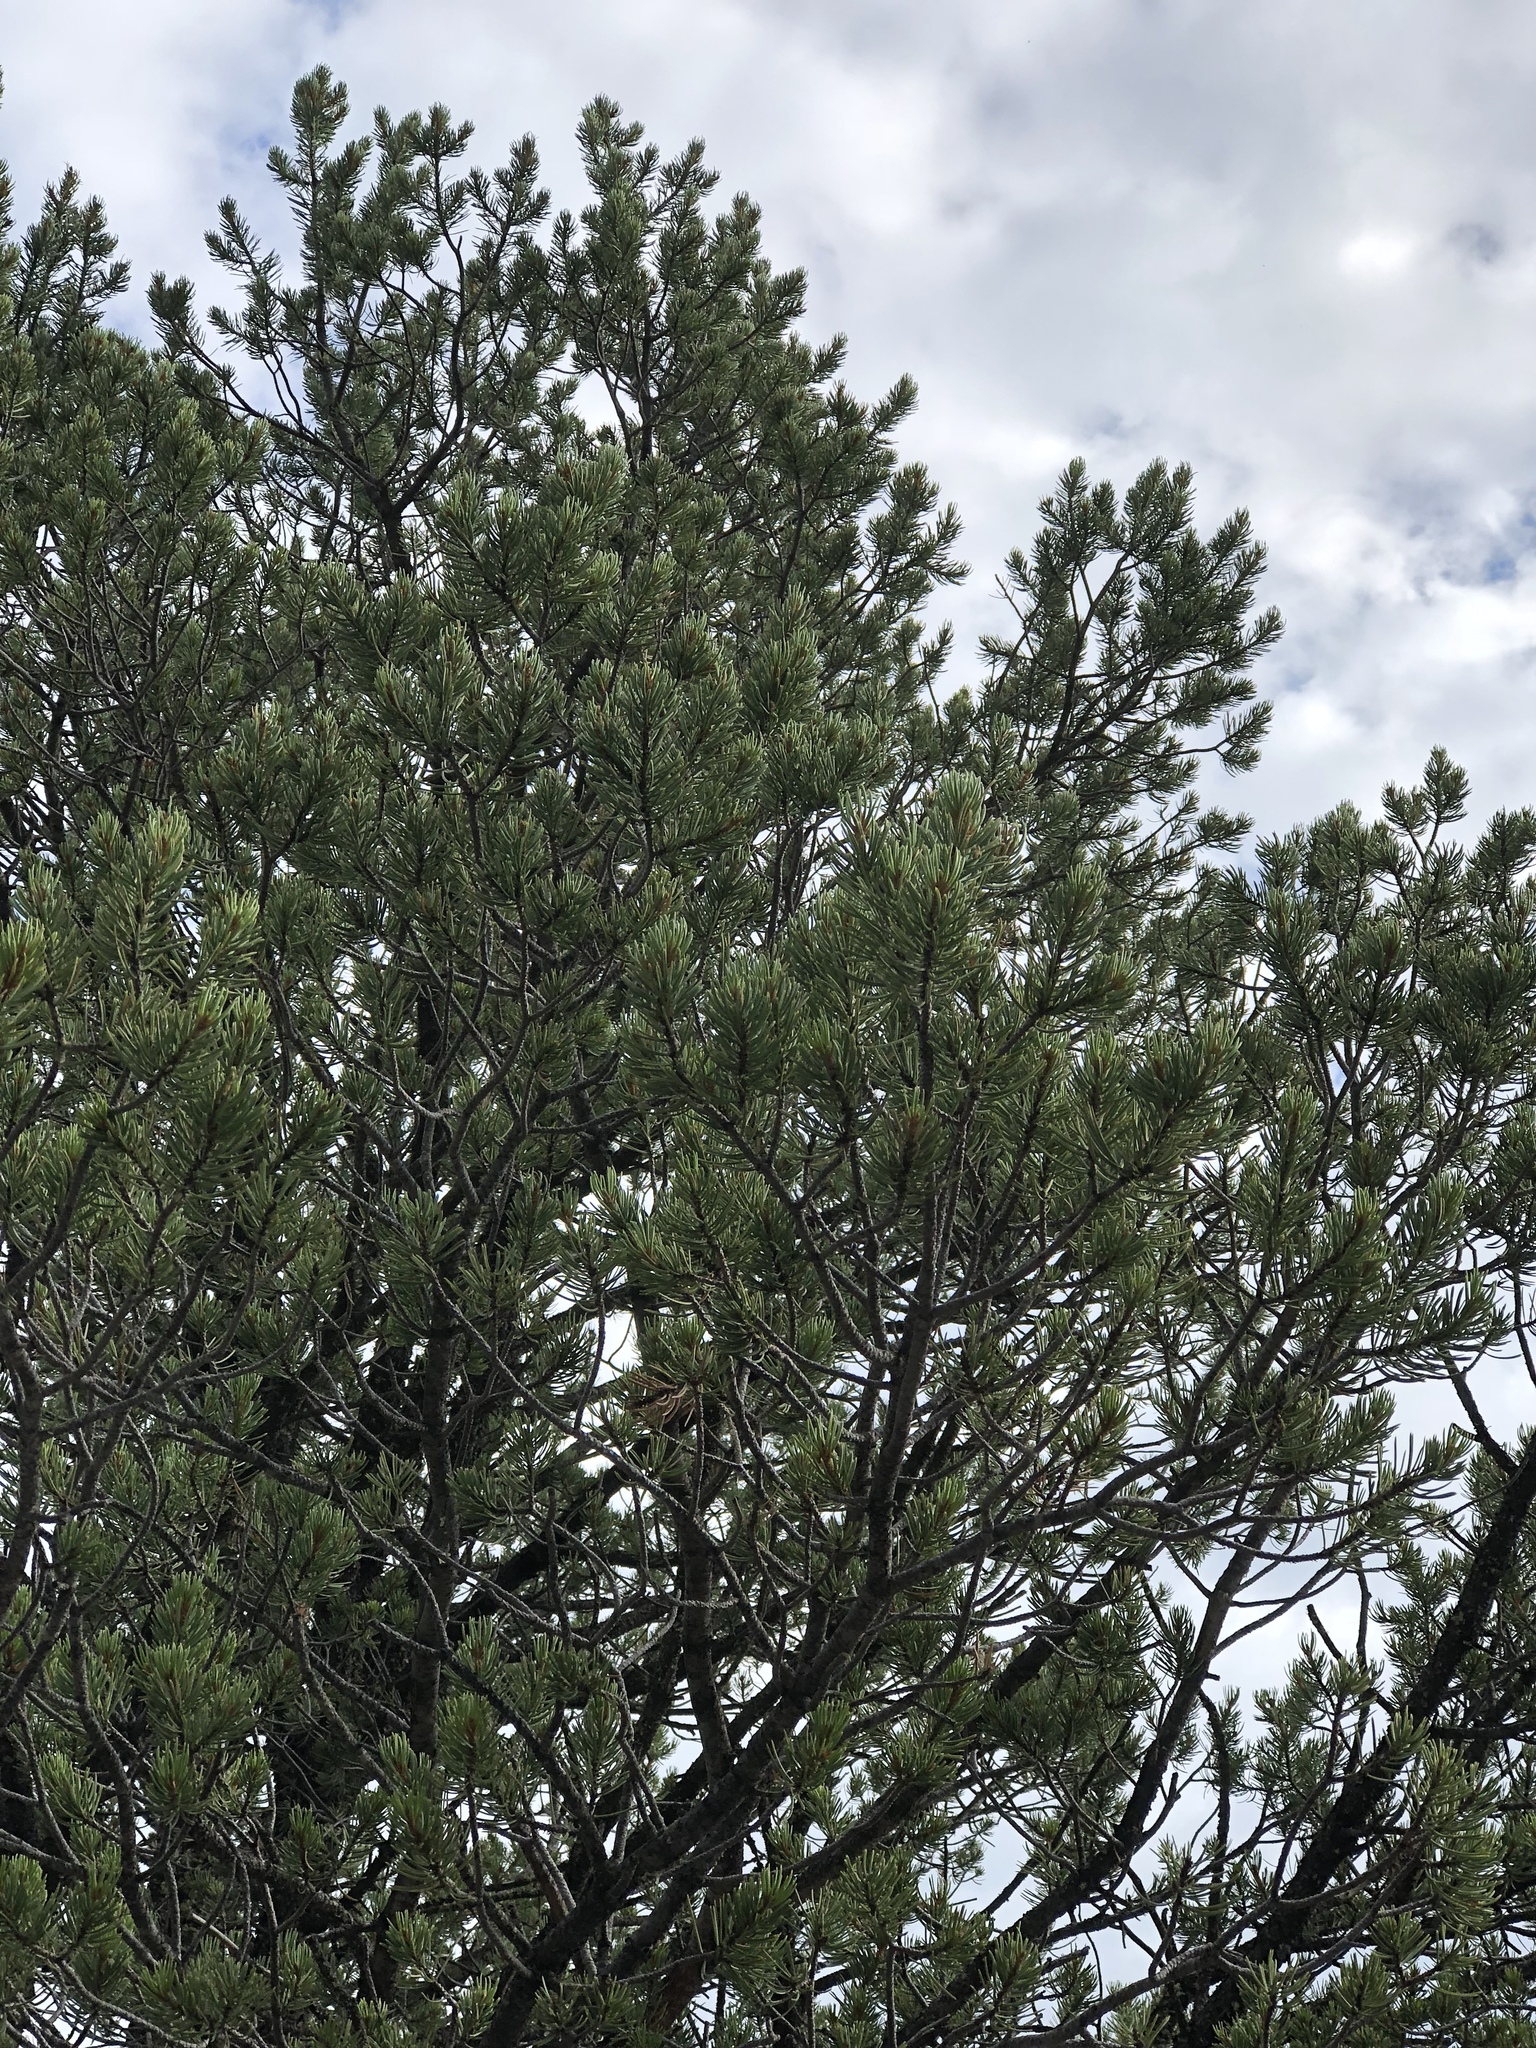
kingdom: Plantae
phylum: Tracheophyta
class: Pinopsida
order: Pinales
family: Pinaceae
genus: Pinus
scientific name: Pinus edulis
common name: Colorado pinyon
